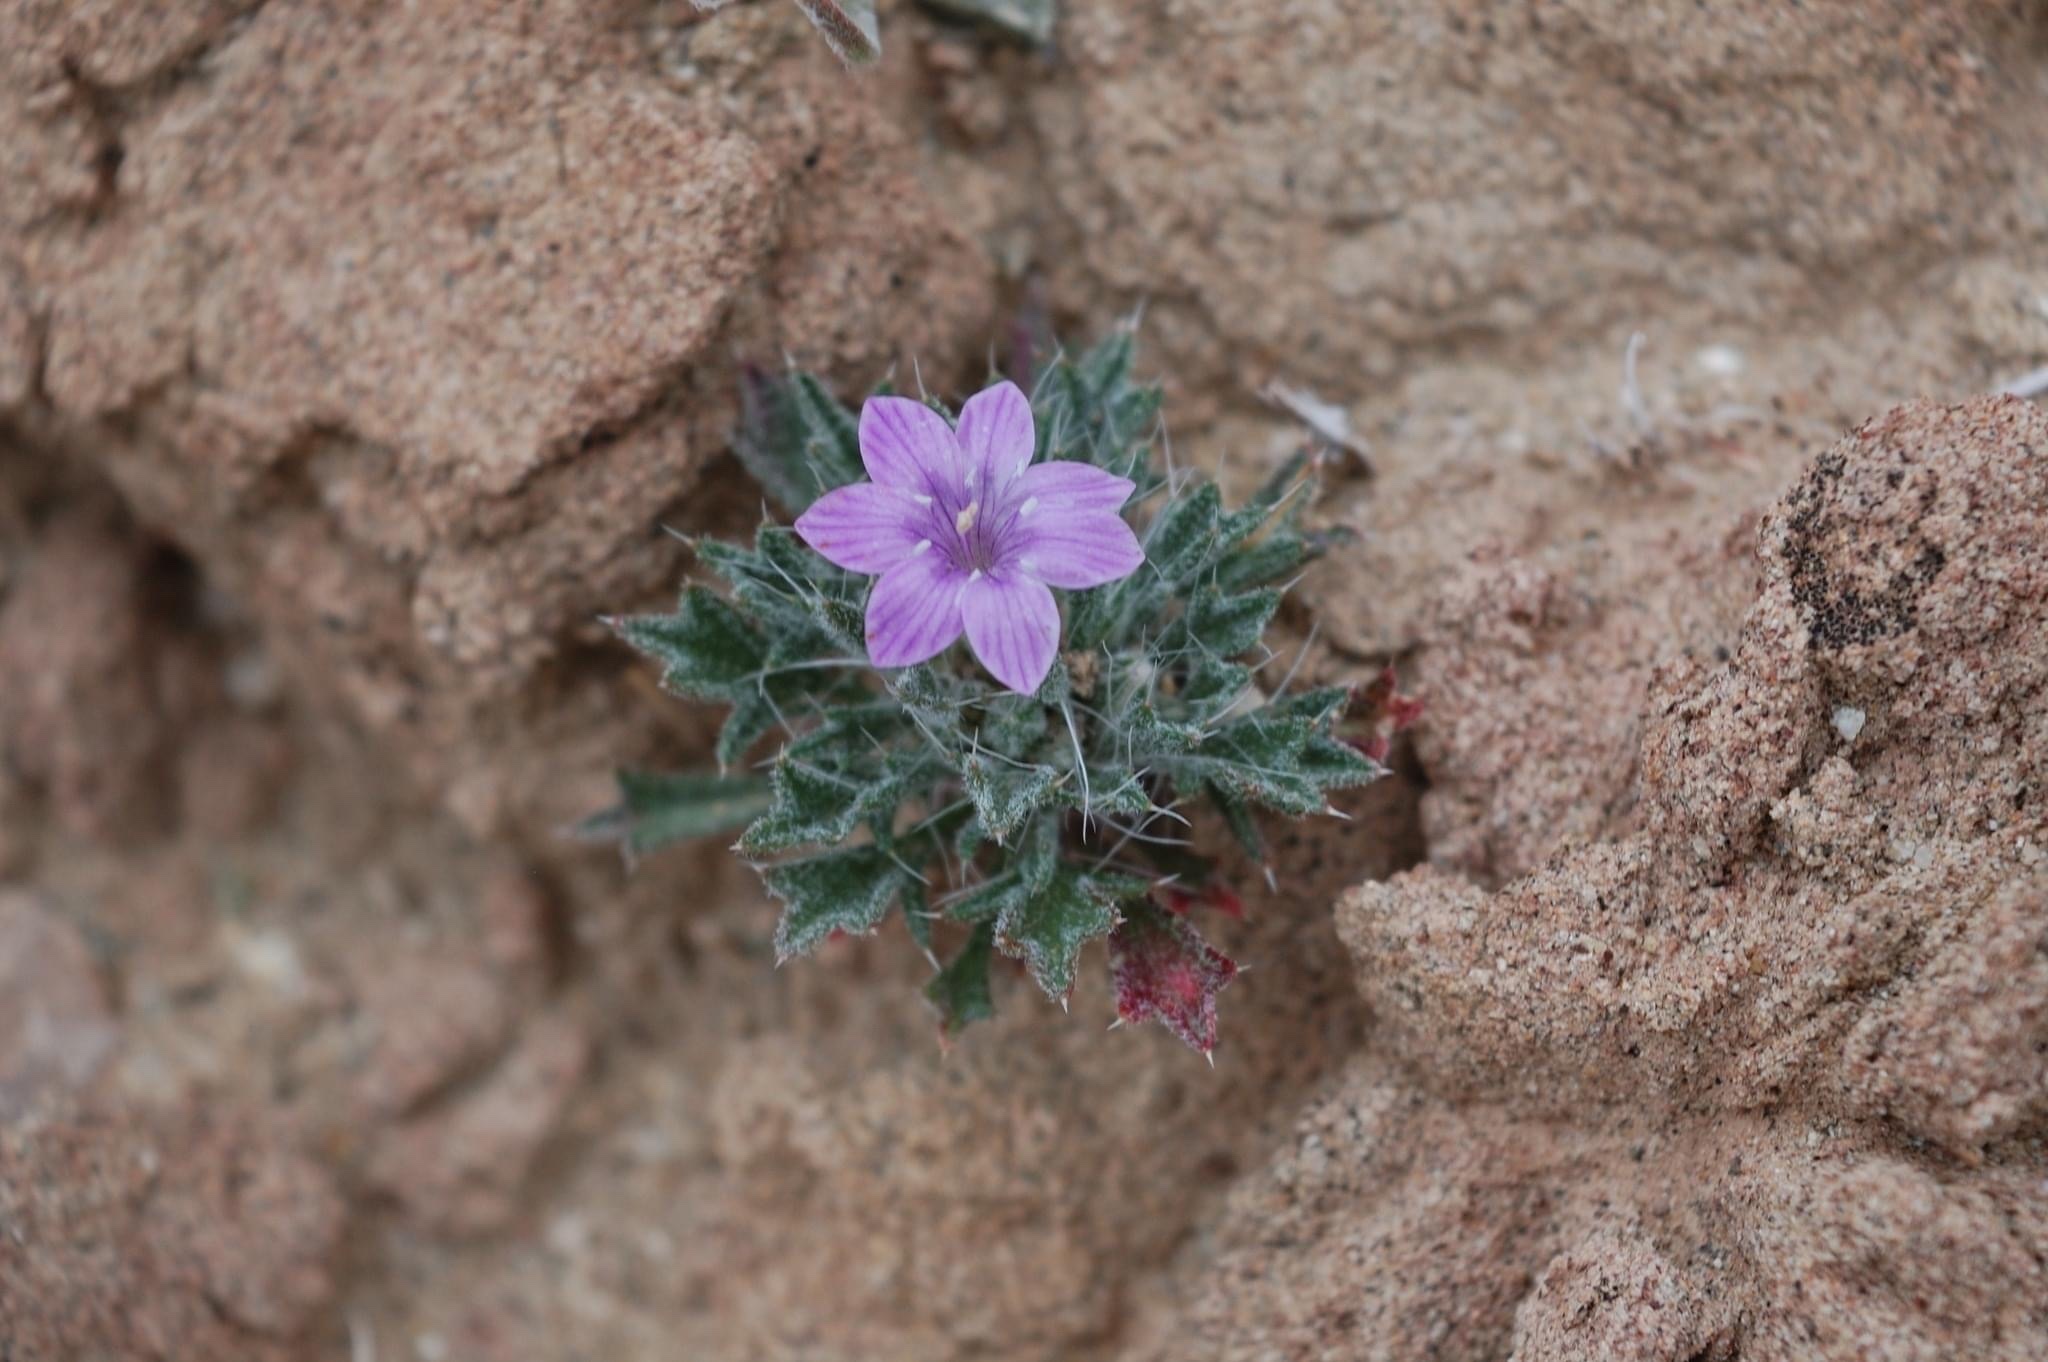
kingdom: Plantae
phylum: Tracheophyta
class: Magnoliopsida
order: Ericales
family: Polemoniaceae
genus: Langloisia
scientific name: Langloisia setosissima
